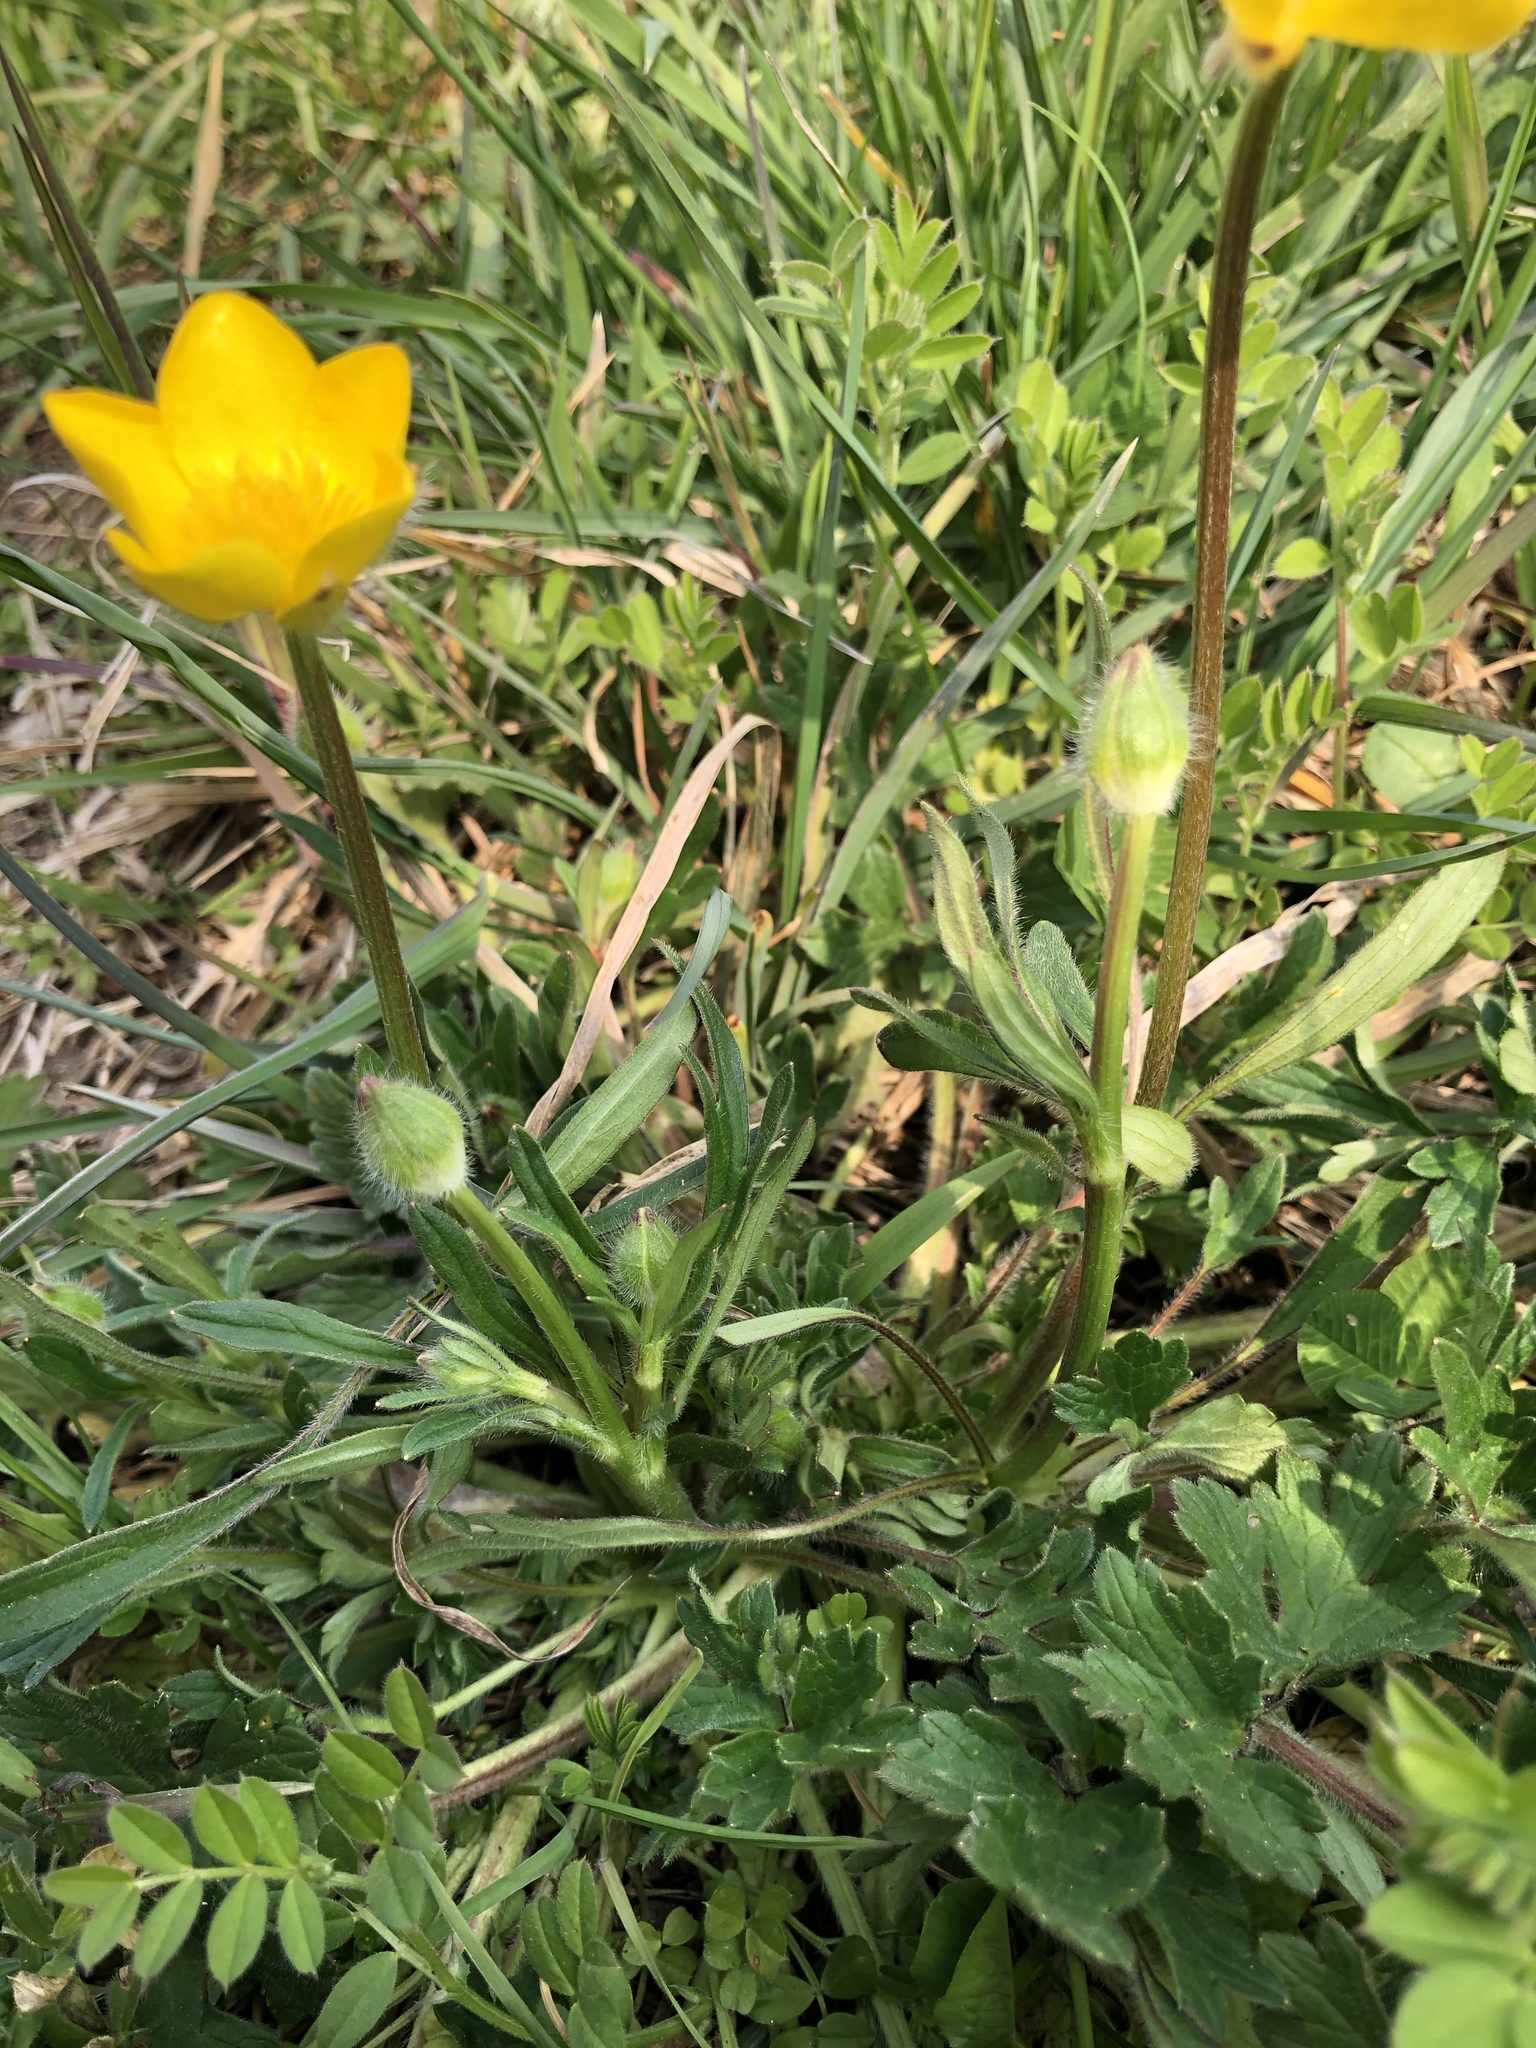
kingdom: Plantae
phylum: Tracheophyta
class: Magnoliopsida
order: Ranunculales
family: Ranunculaceae
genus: Ranunculus
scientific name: Ranunculus repens
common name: Creeping buttercup
